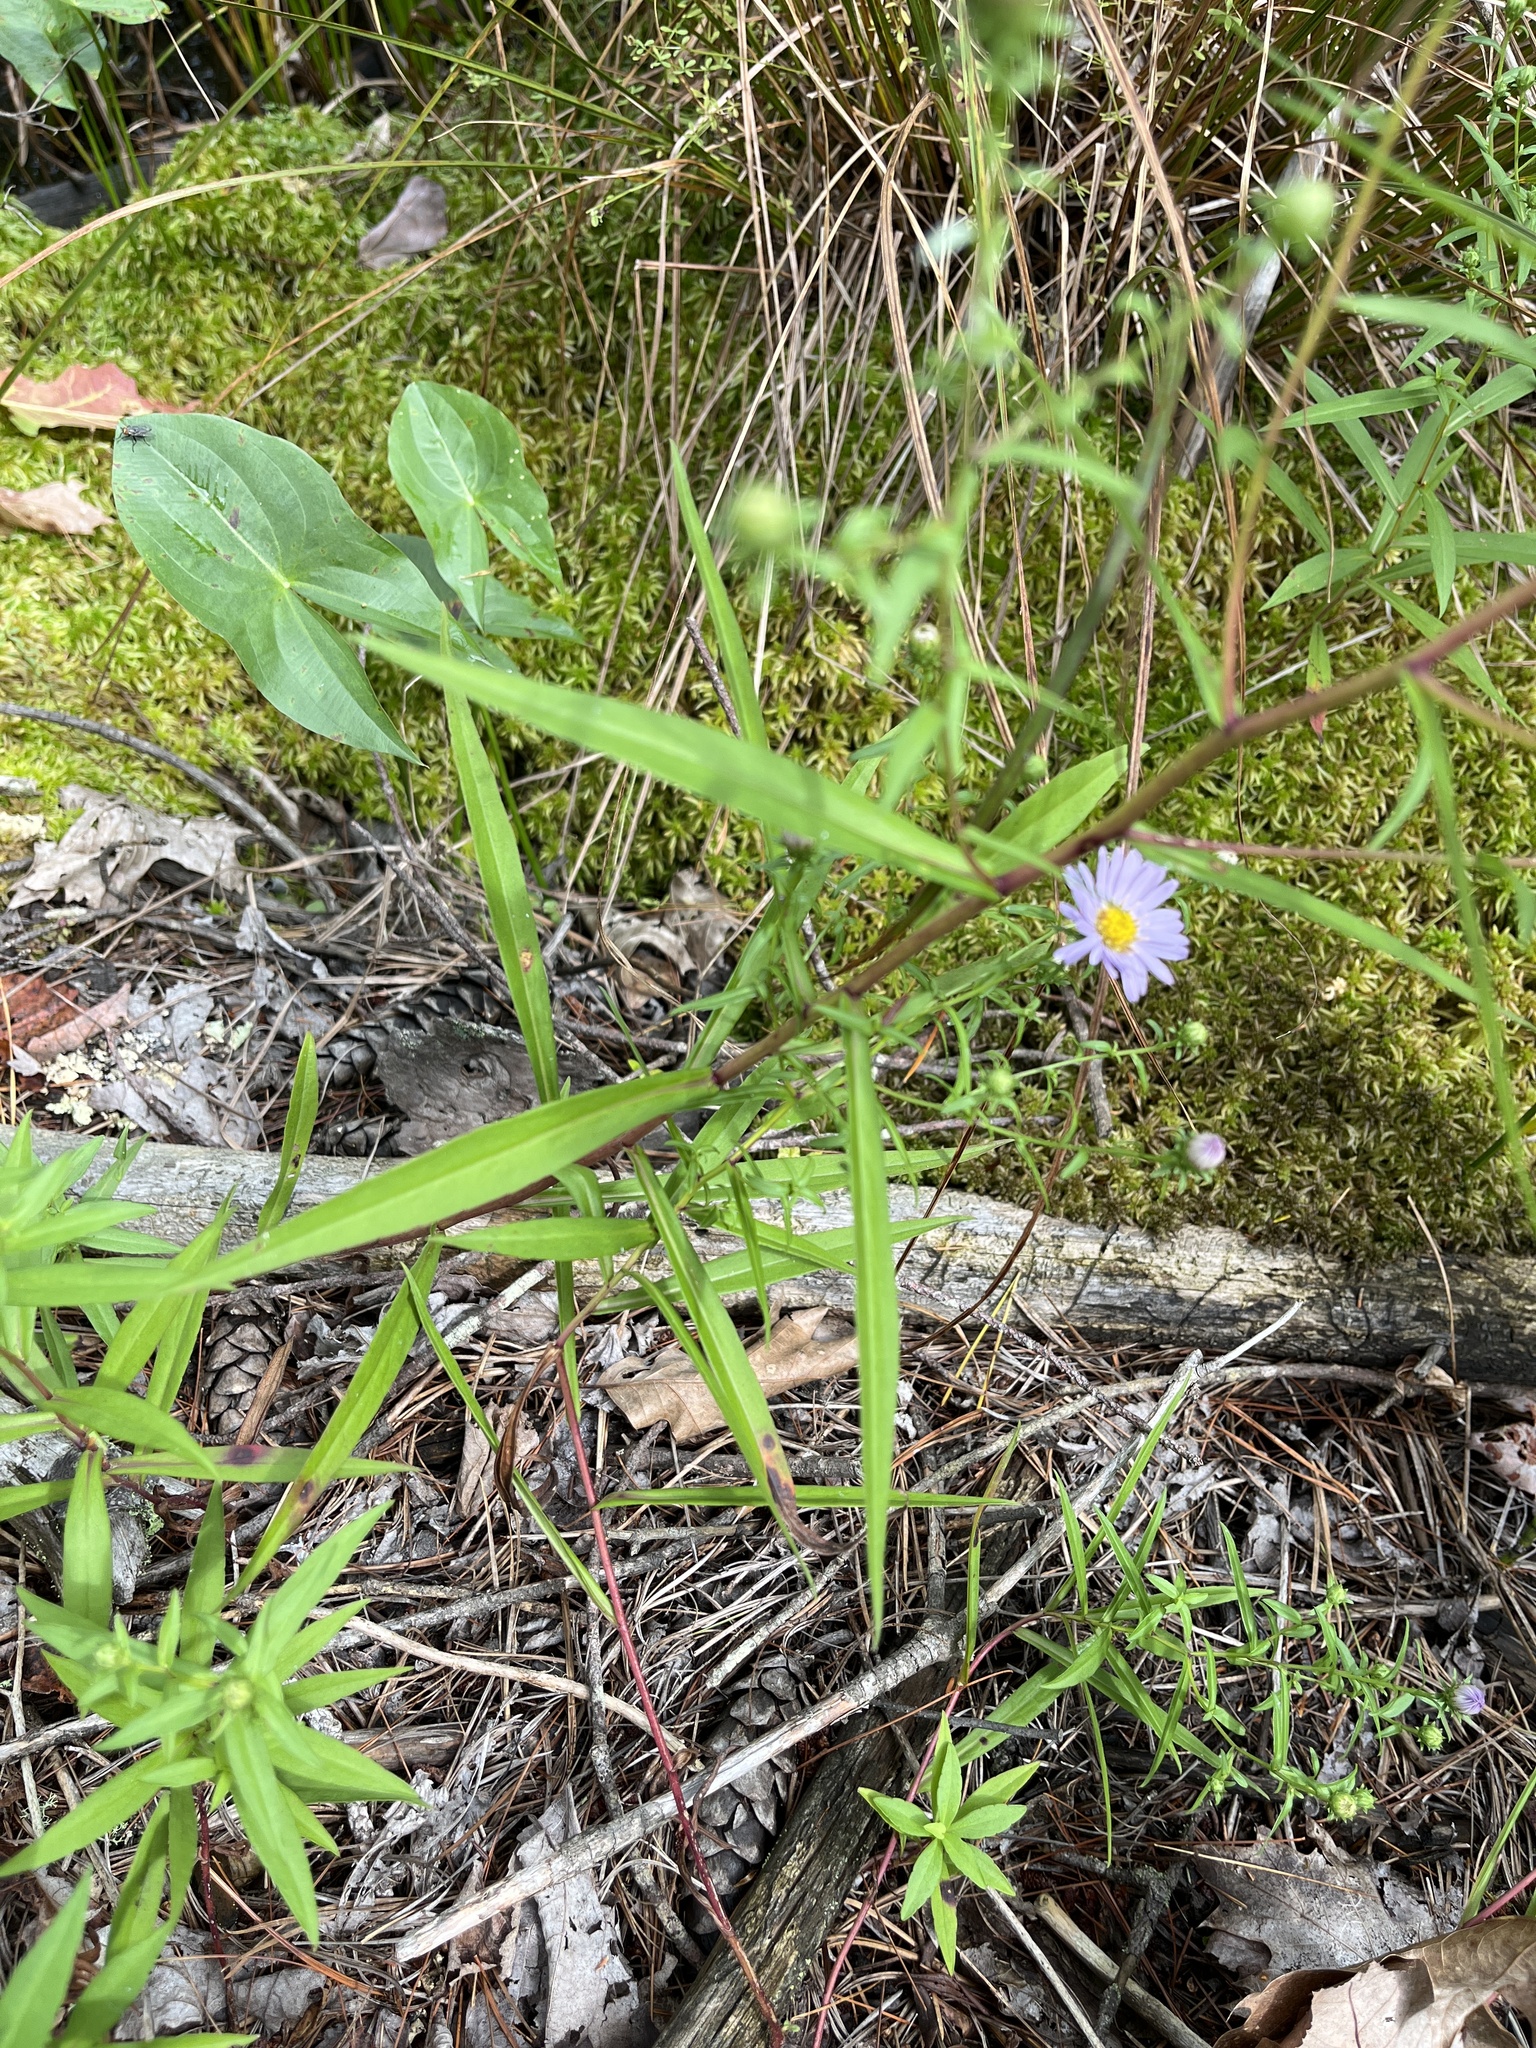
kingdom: Plantae
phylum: Tracheophyta
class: Magnoliopsida
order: Asterales
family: Asteraceae
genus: Symphyotrichum
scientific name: Symphyotrichum novi-belgii
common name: Michaelmas daisy
